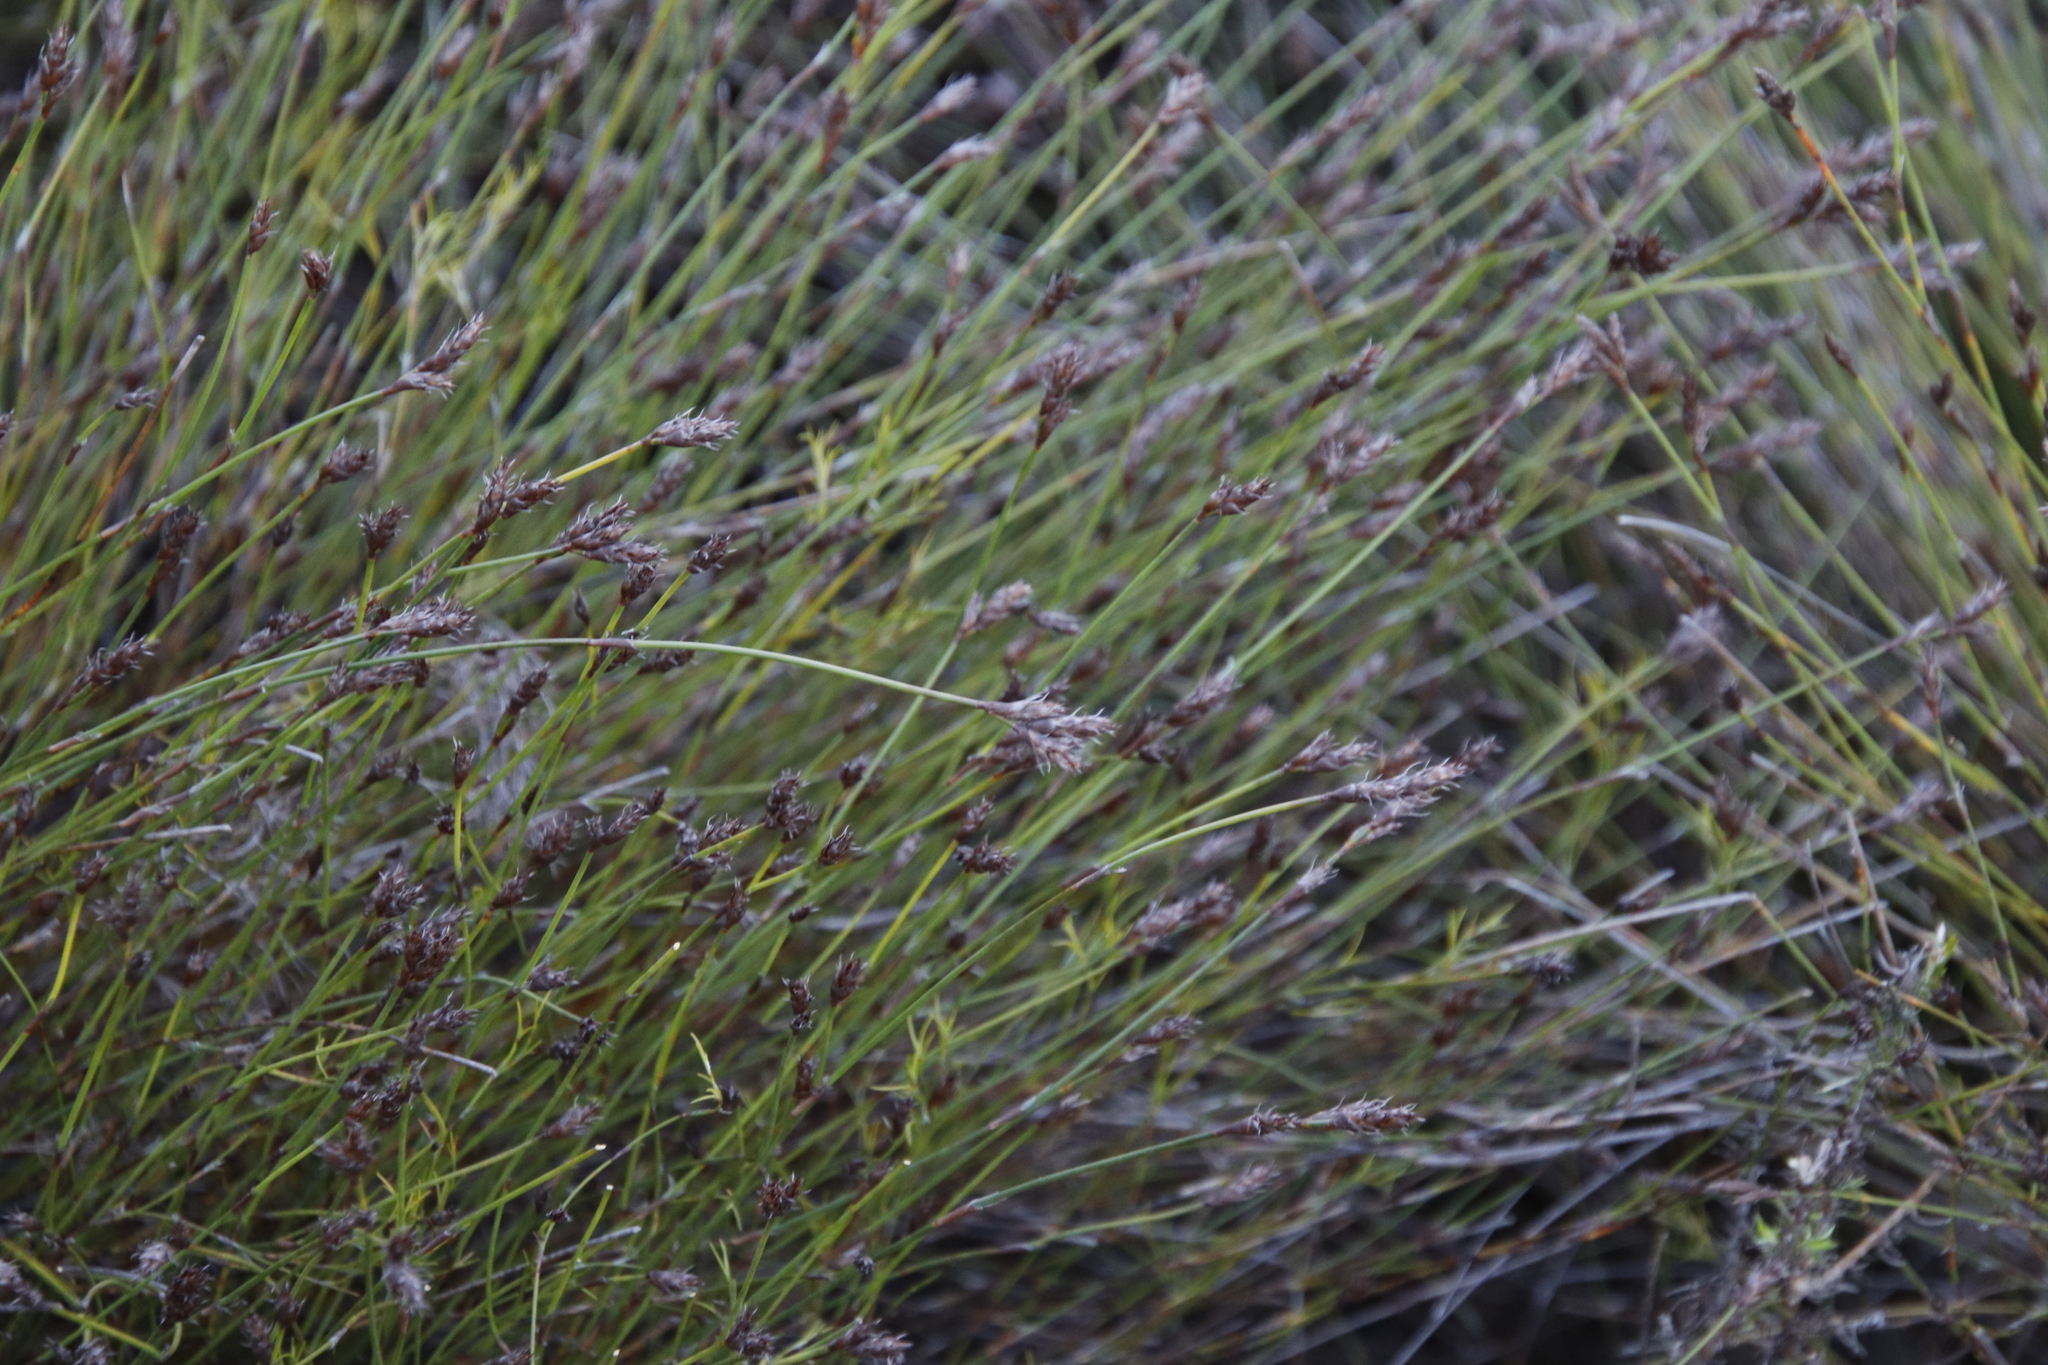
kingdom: Plantae
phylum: Tracheophyta
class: Liliopsida
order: Poales
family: Restionaceae
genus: Restio
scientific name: Restio capensis
